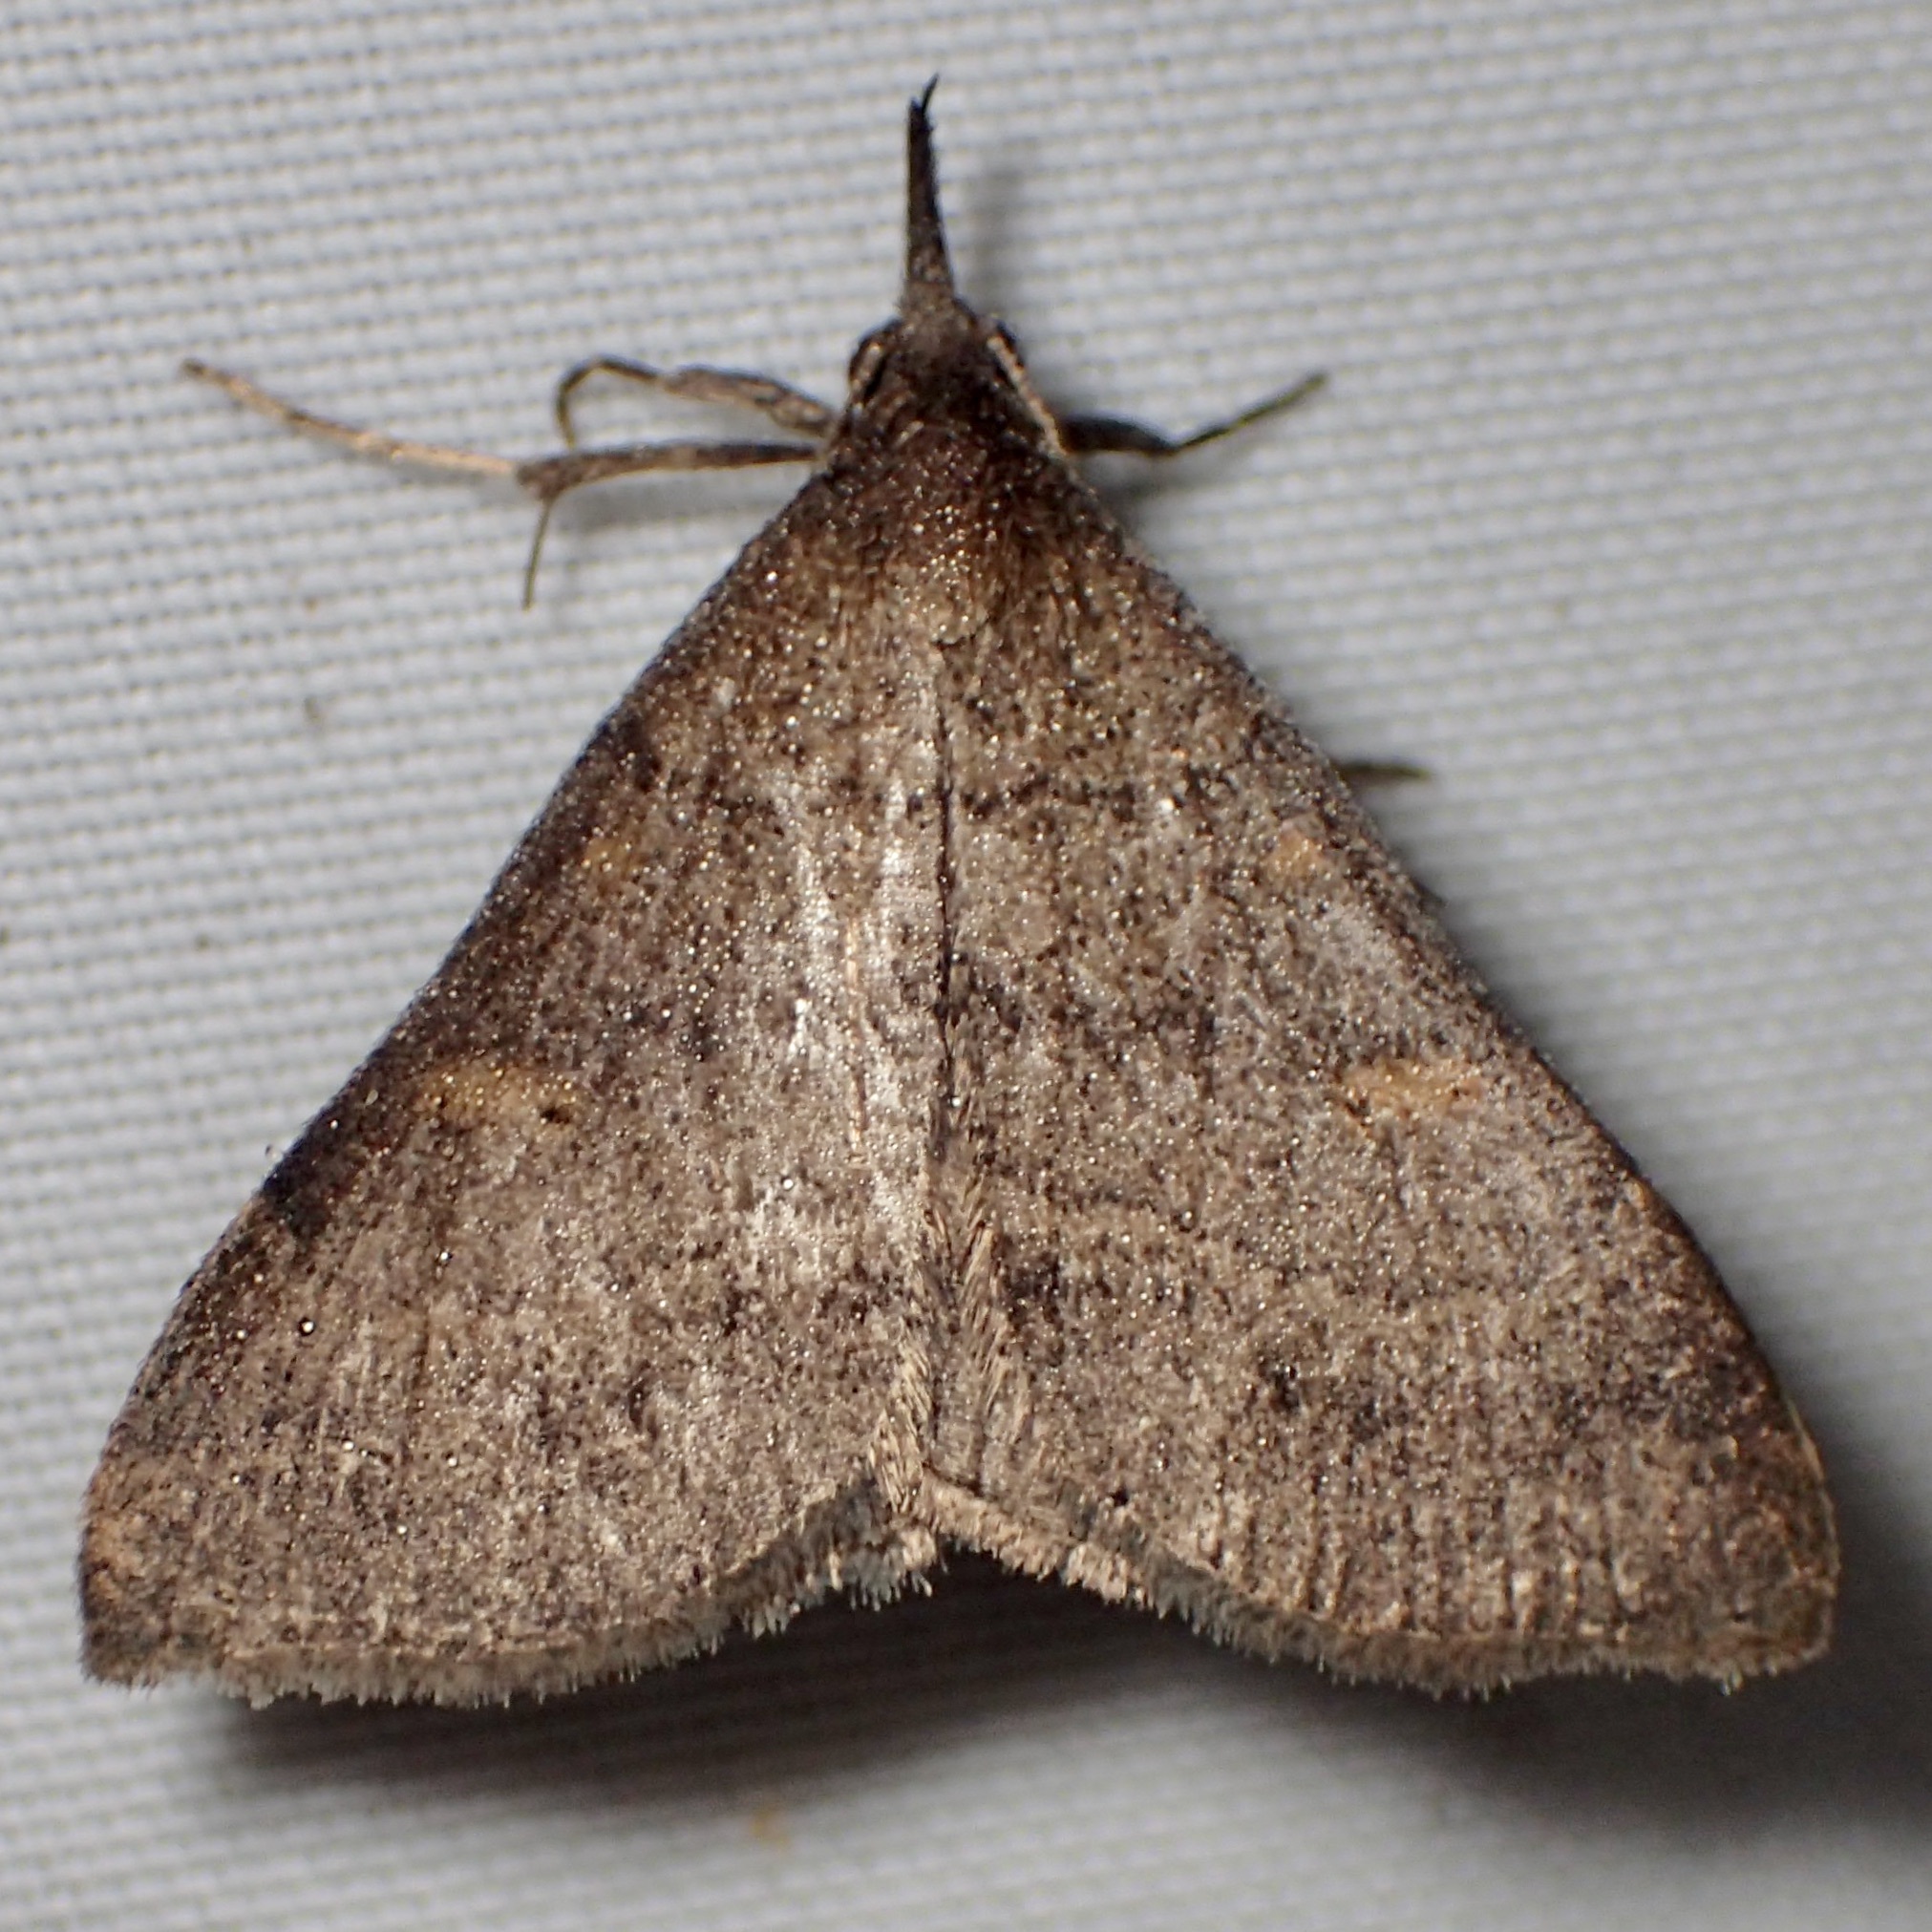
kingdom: Animalia
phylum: Arthropoda
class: Insecta
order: Lepidoptera
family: Erebidae
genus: Renia
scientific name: Renia hutsoni
